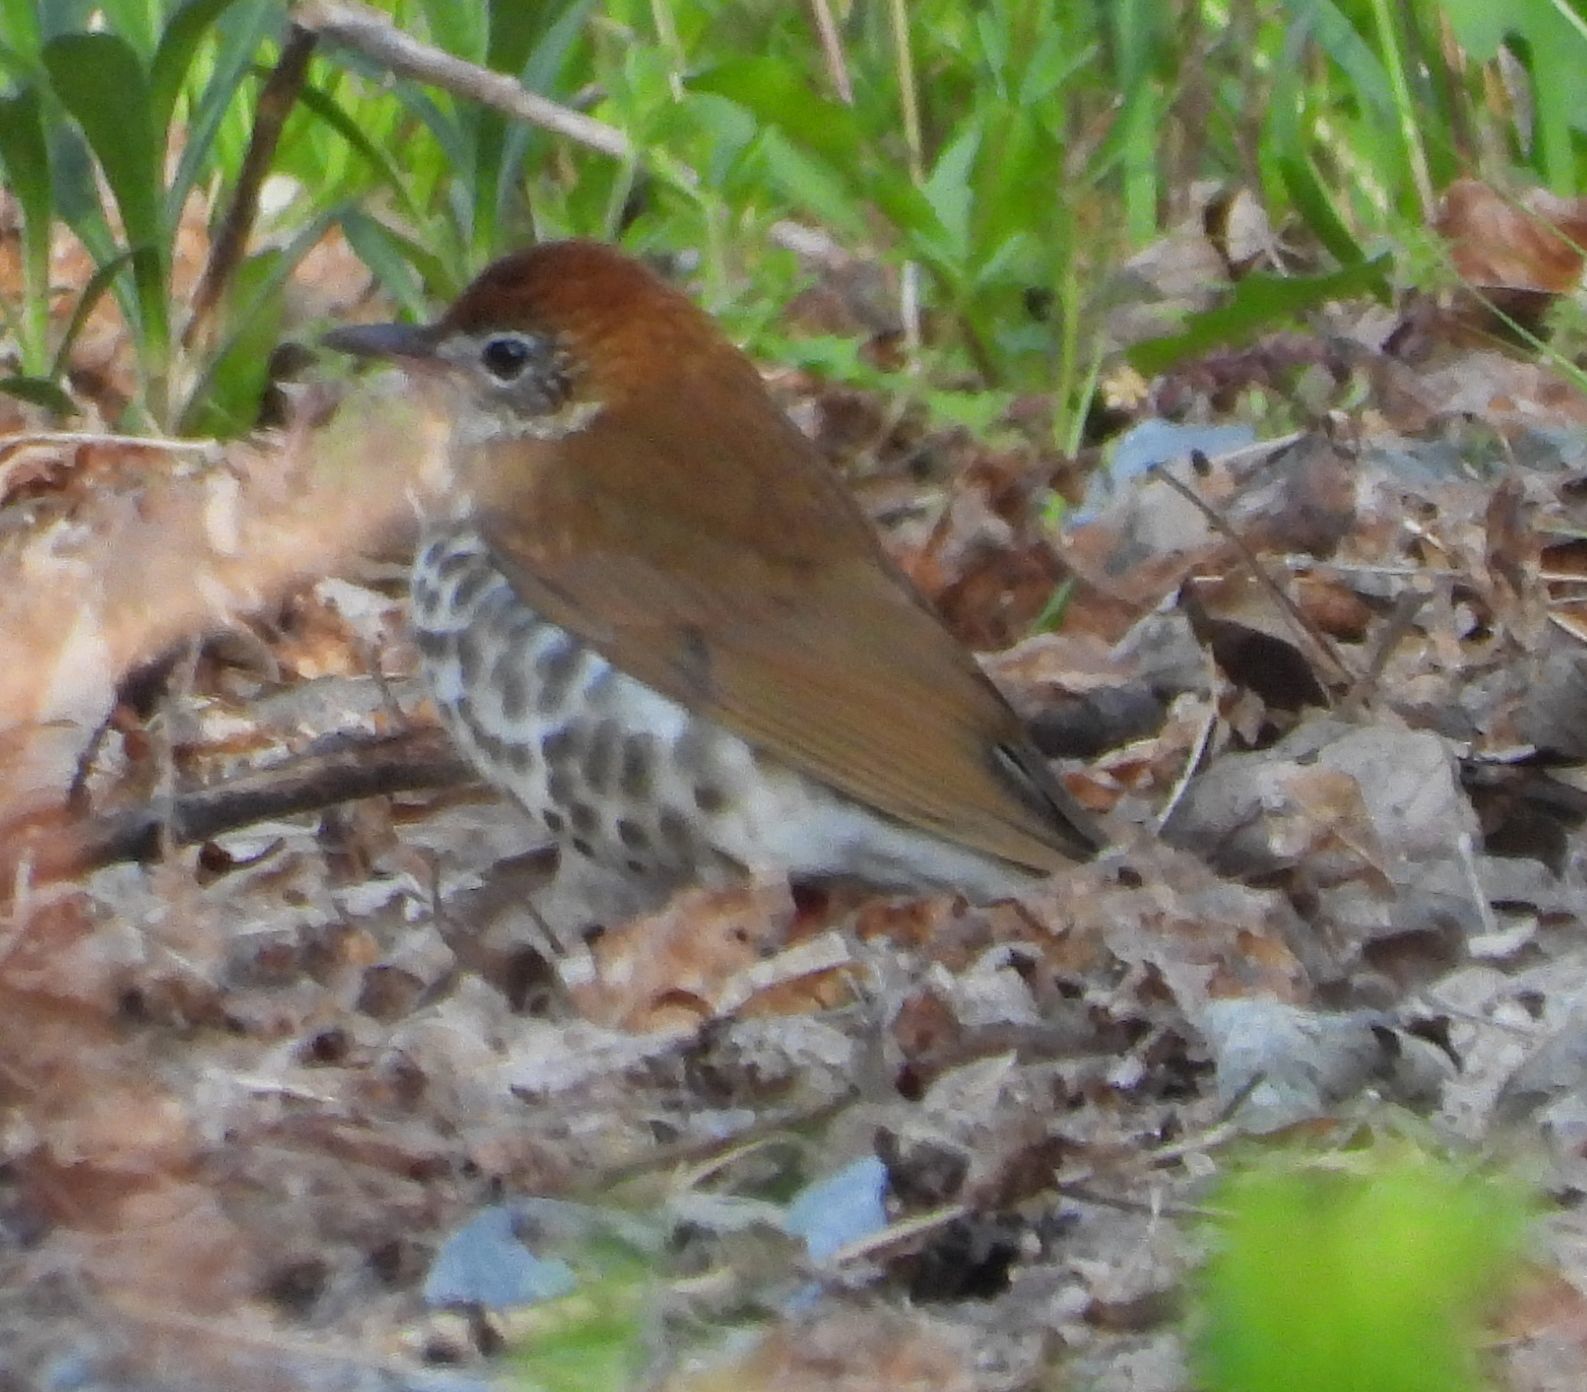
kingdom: Animalia
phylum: Chordata
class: Aves
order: Passeriformes
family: Turdidae
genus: Hylocichla
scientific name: Hylocichla mustelina
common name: Wood thrush
